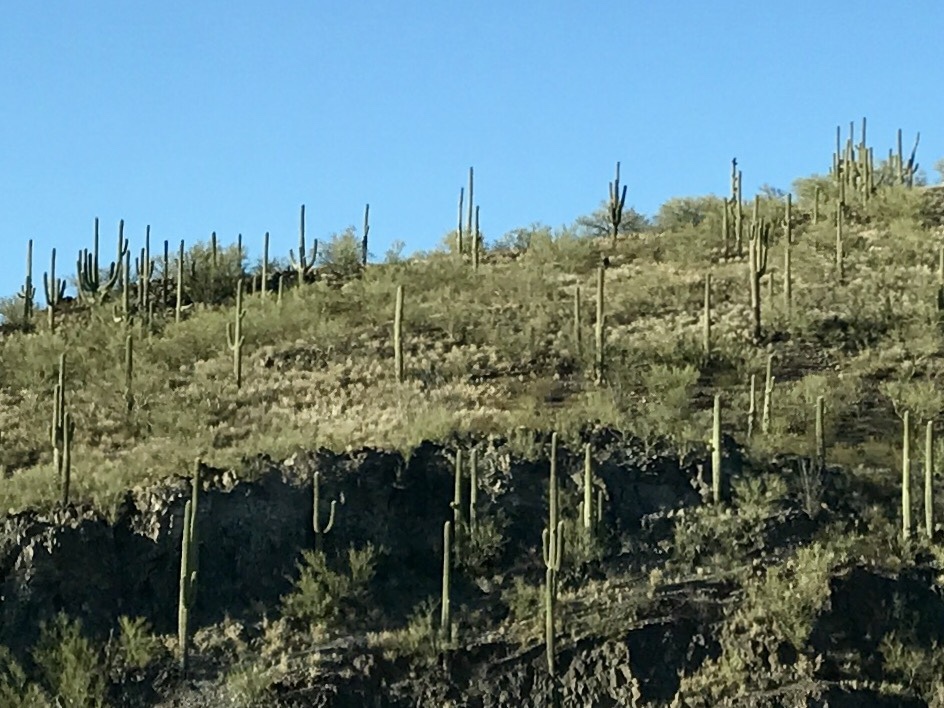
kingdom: Plantae
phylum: Tracheophyta
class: Magnoliopsida
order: Caryophyllales
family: Cactaceae
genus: Carnegiea
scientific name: Carnegiea gigantea
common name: Saguaro
